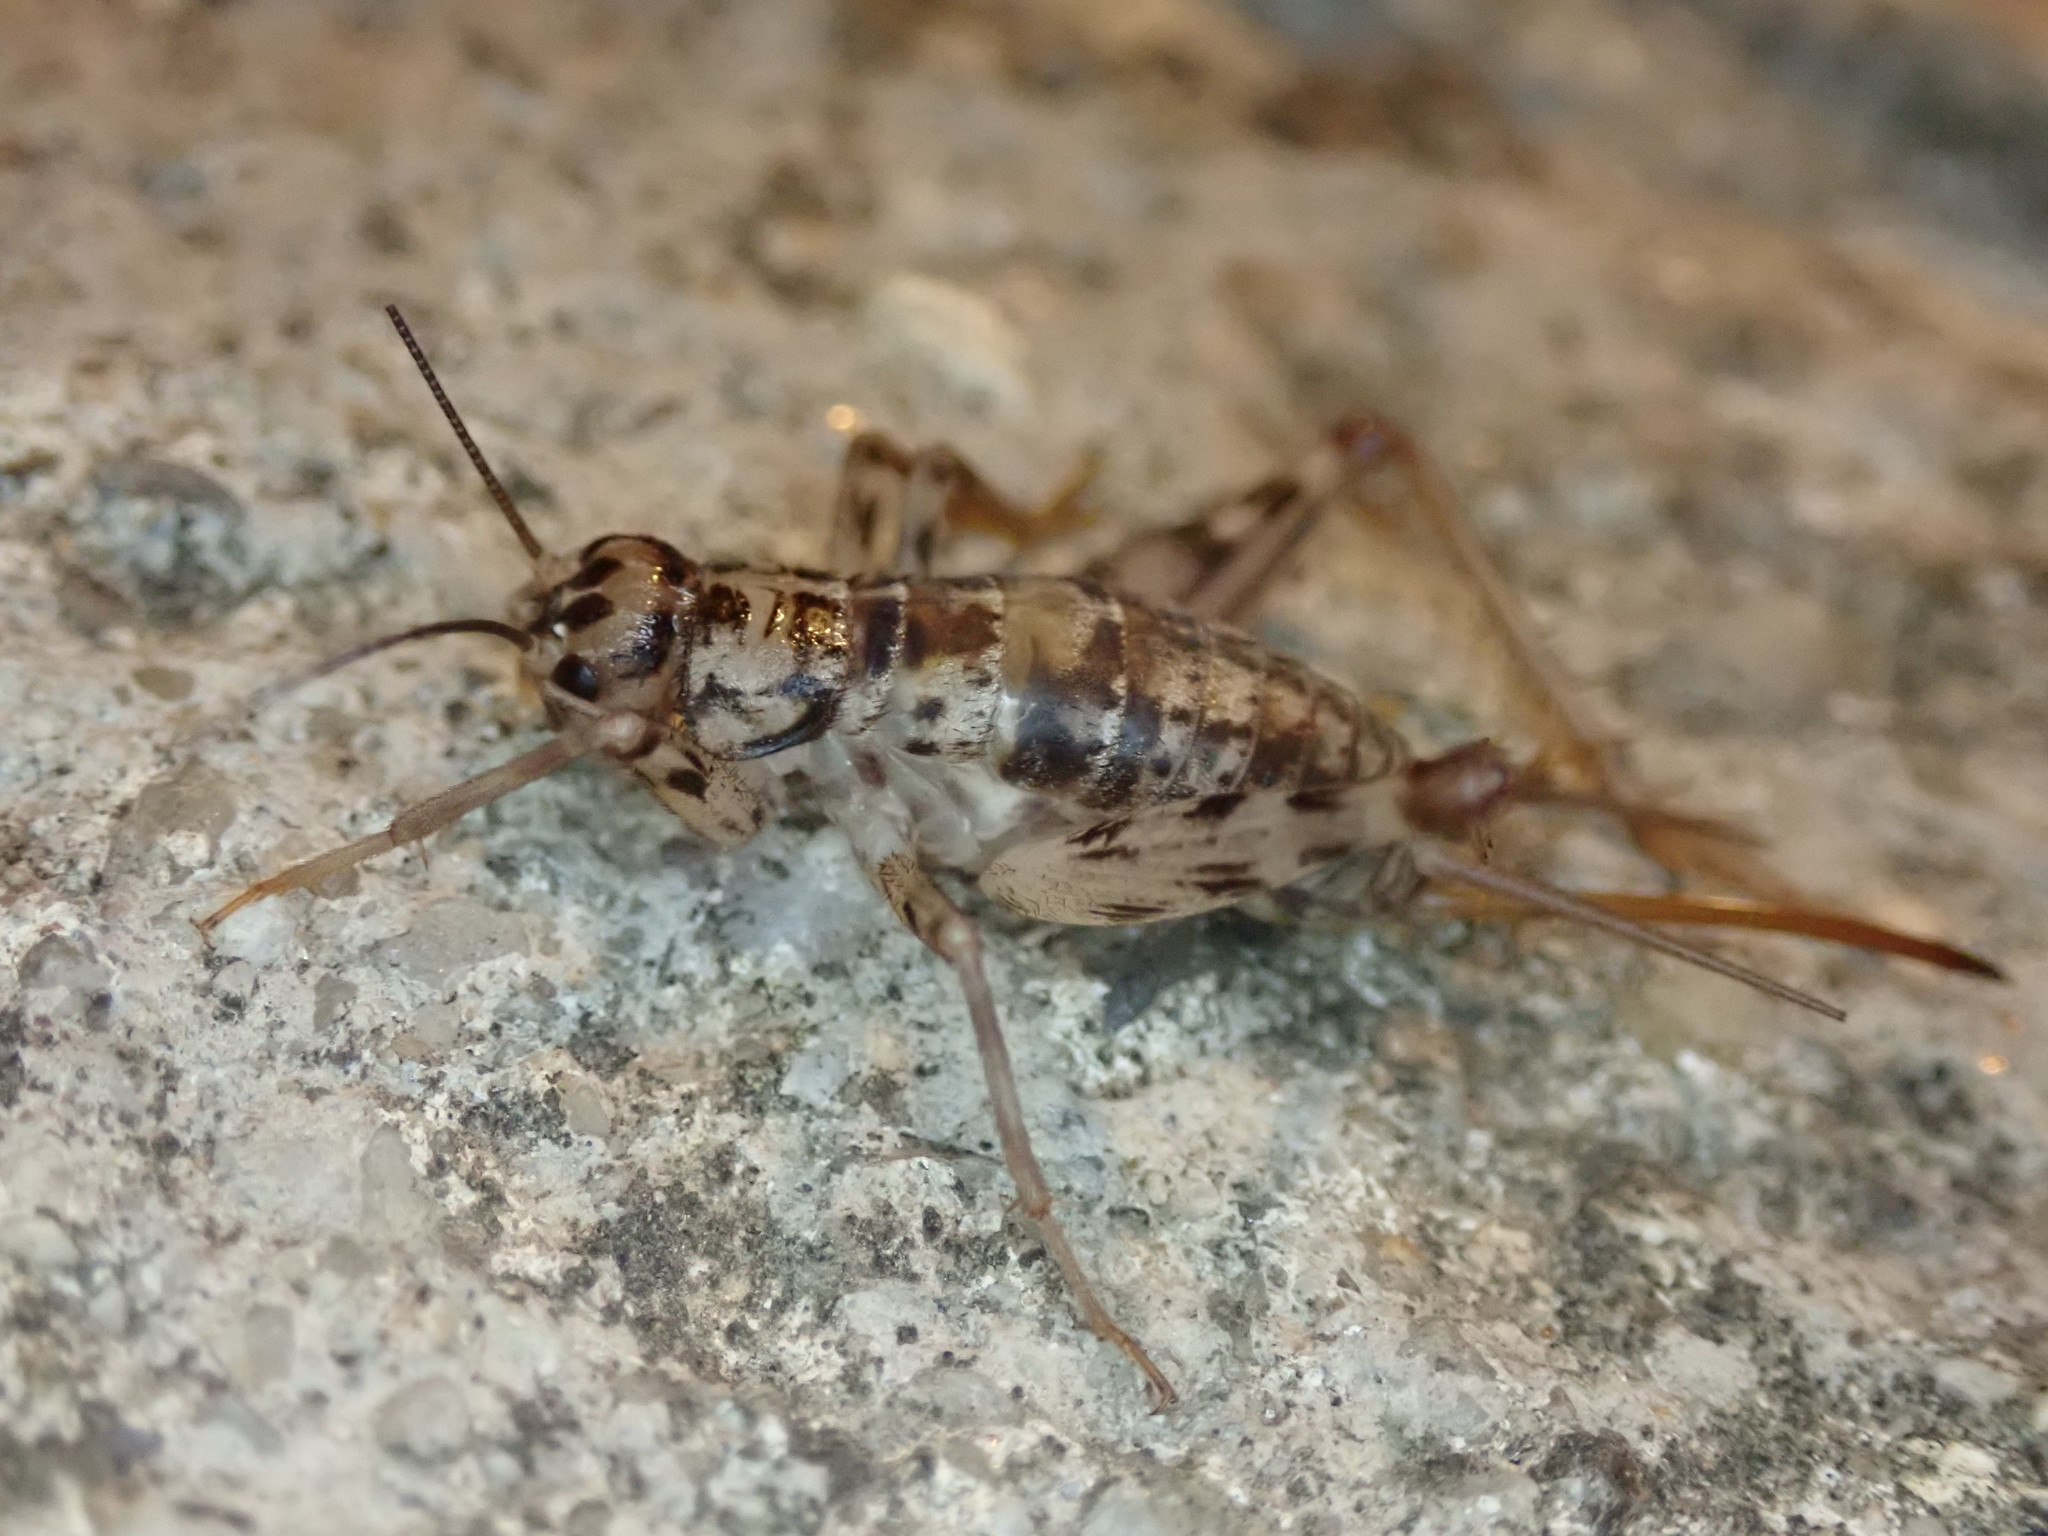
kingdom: Animalia
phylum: Arthropoda
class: Insecta
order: Orthoptera
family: Gryllidae
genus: Gryllomorpha
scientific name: Gryllomorpha dalmatina
